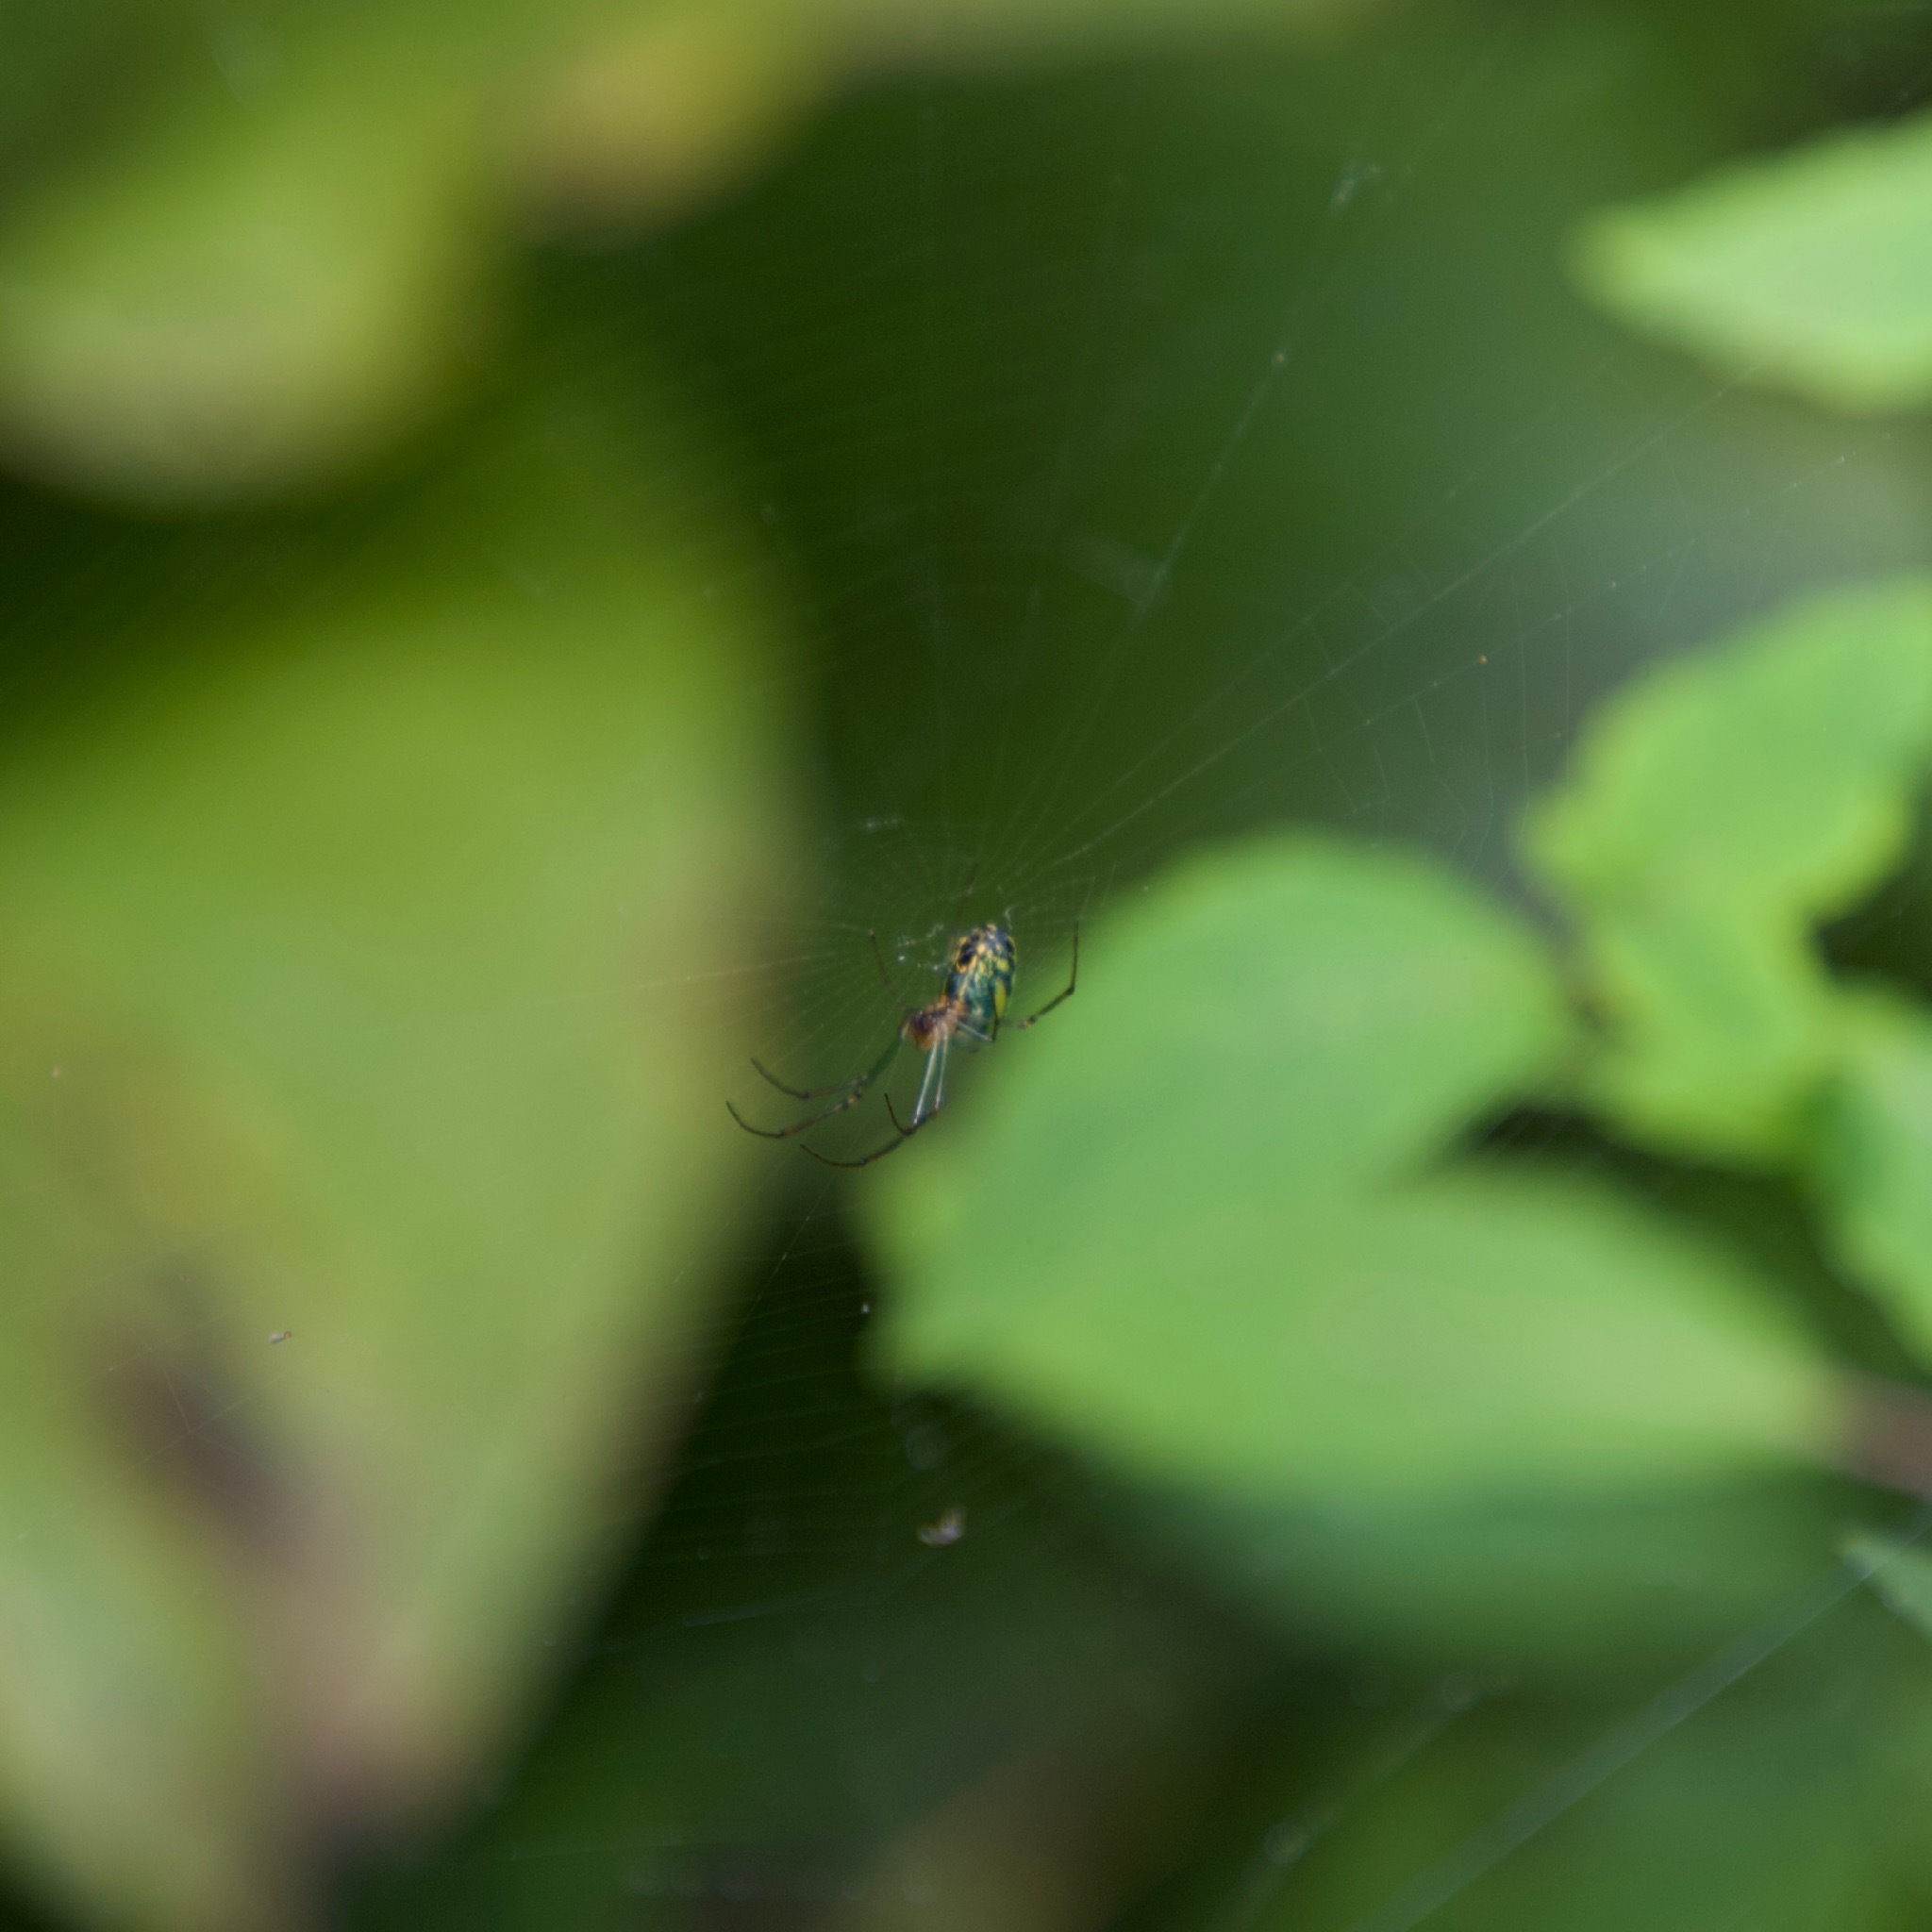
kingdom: Animalia
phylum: Arthropoda
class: Arachnida
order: Araneae
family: Tetragnathidae
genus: Leucauge
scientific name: Leucauge venusta
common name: Longjawed orb weavers
